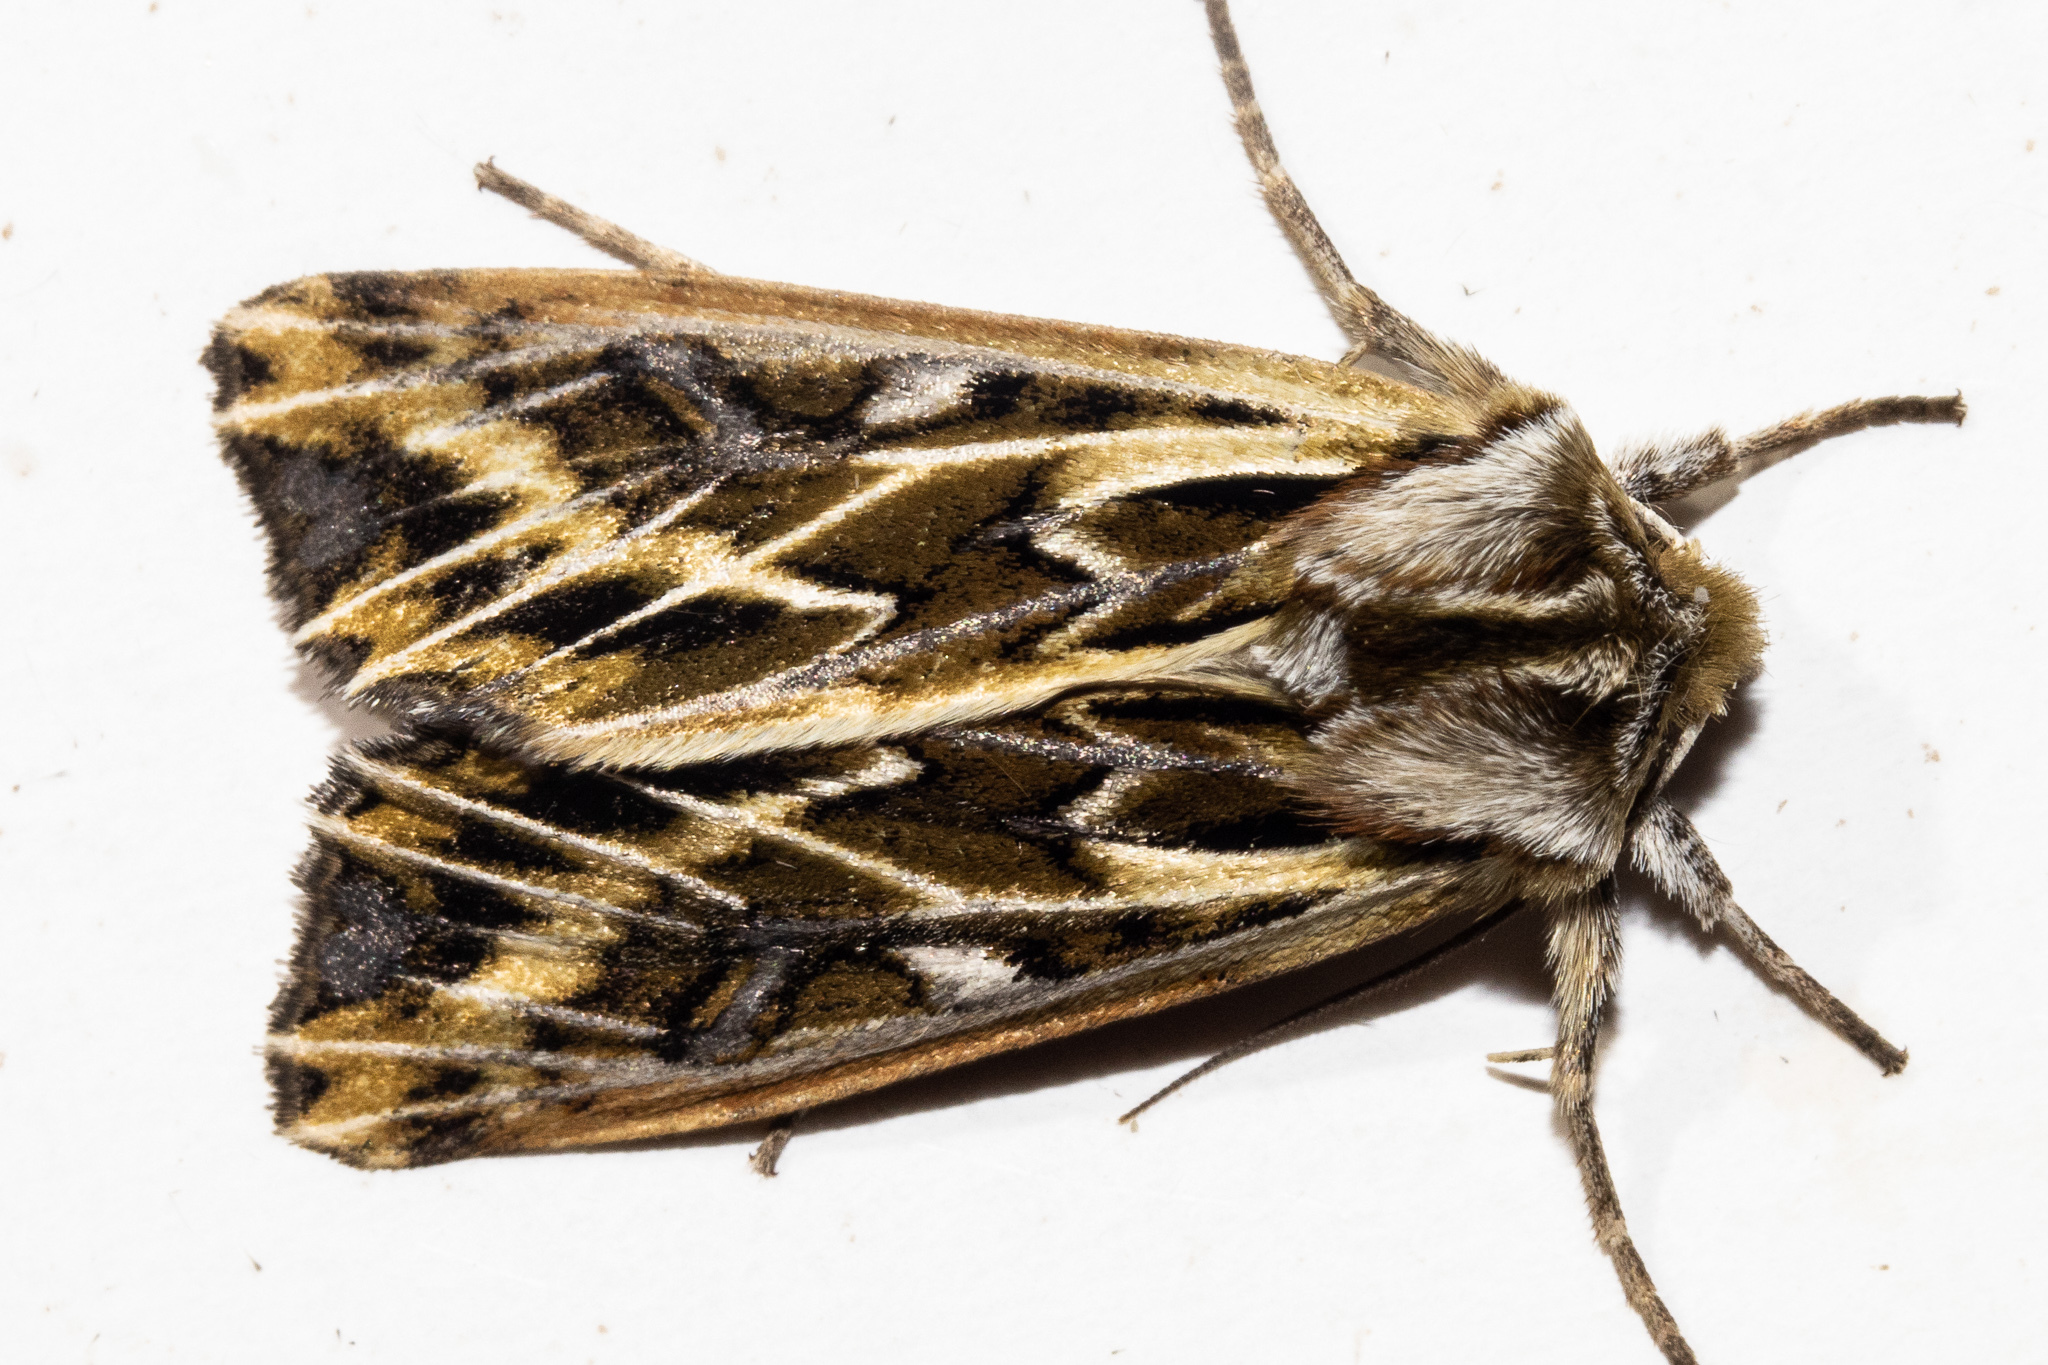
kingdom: Animalia
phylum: Arthropoda
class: Insecta
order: Lepidoptera
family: Noctuidae
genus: Ichneutica
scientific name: Ichneutica
